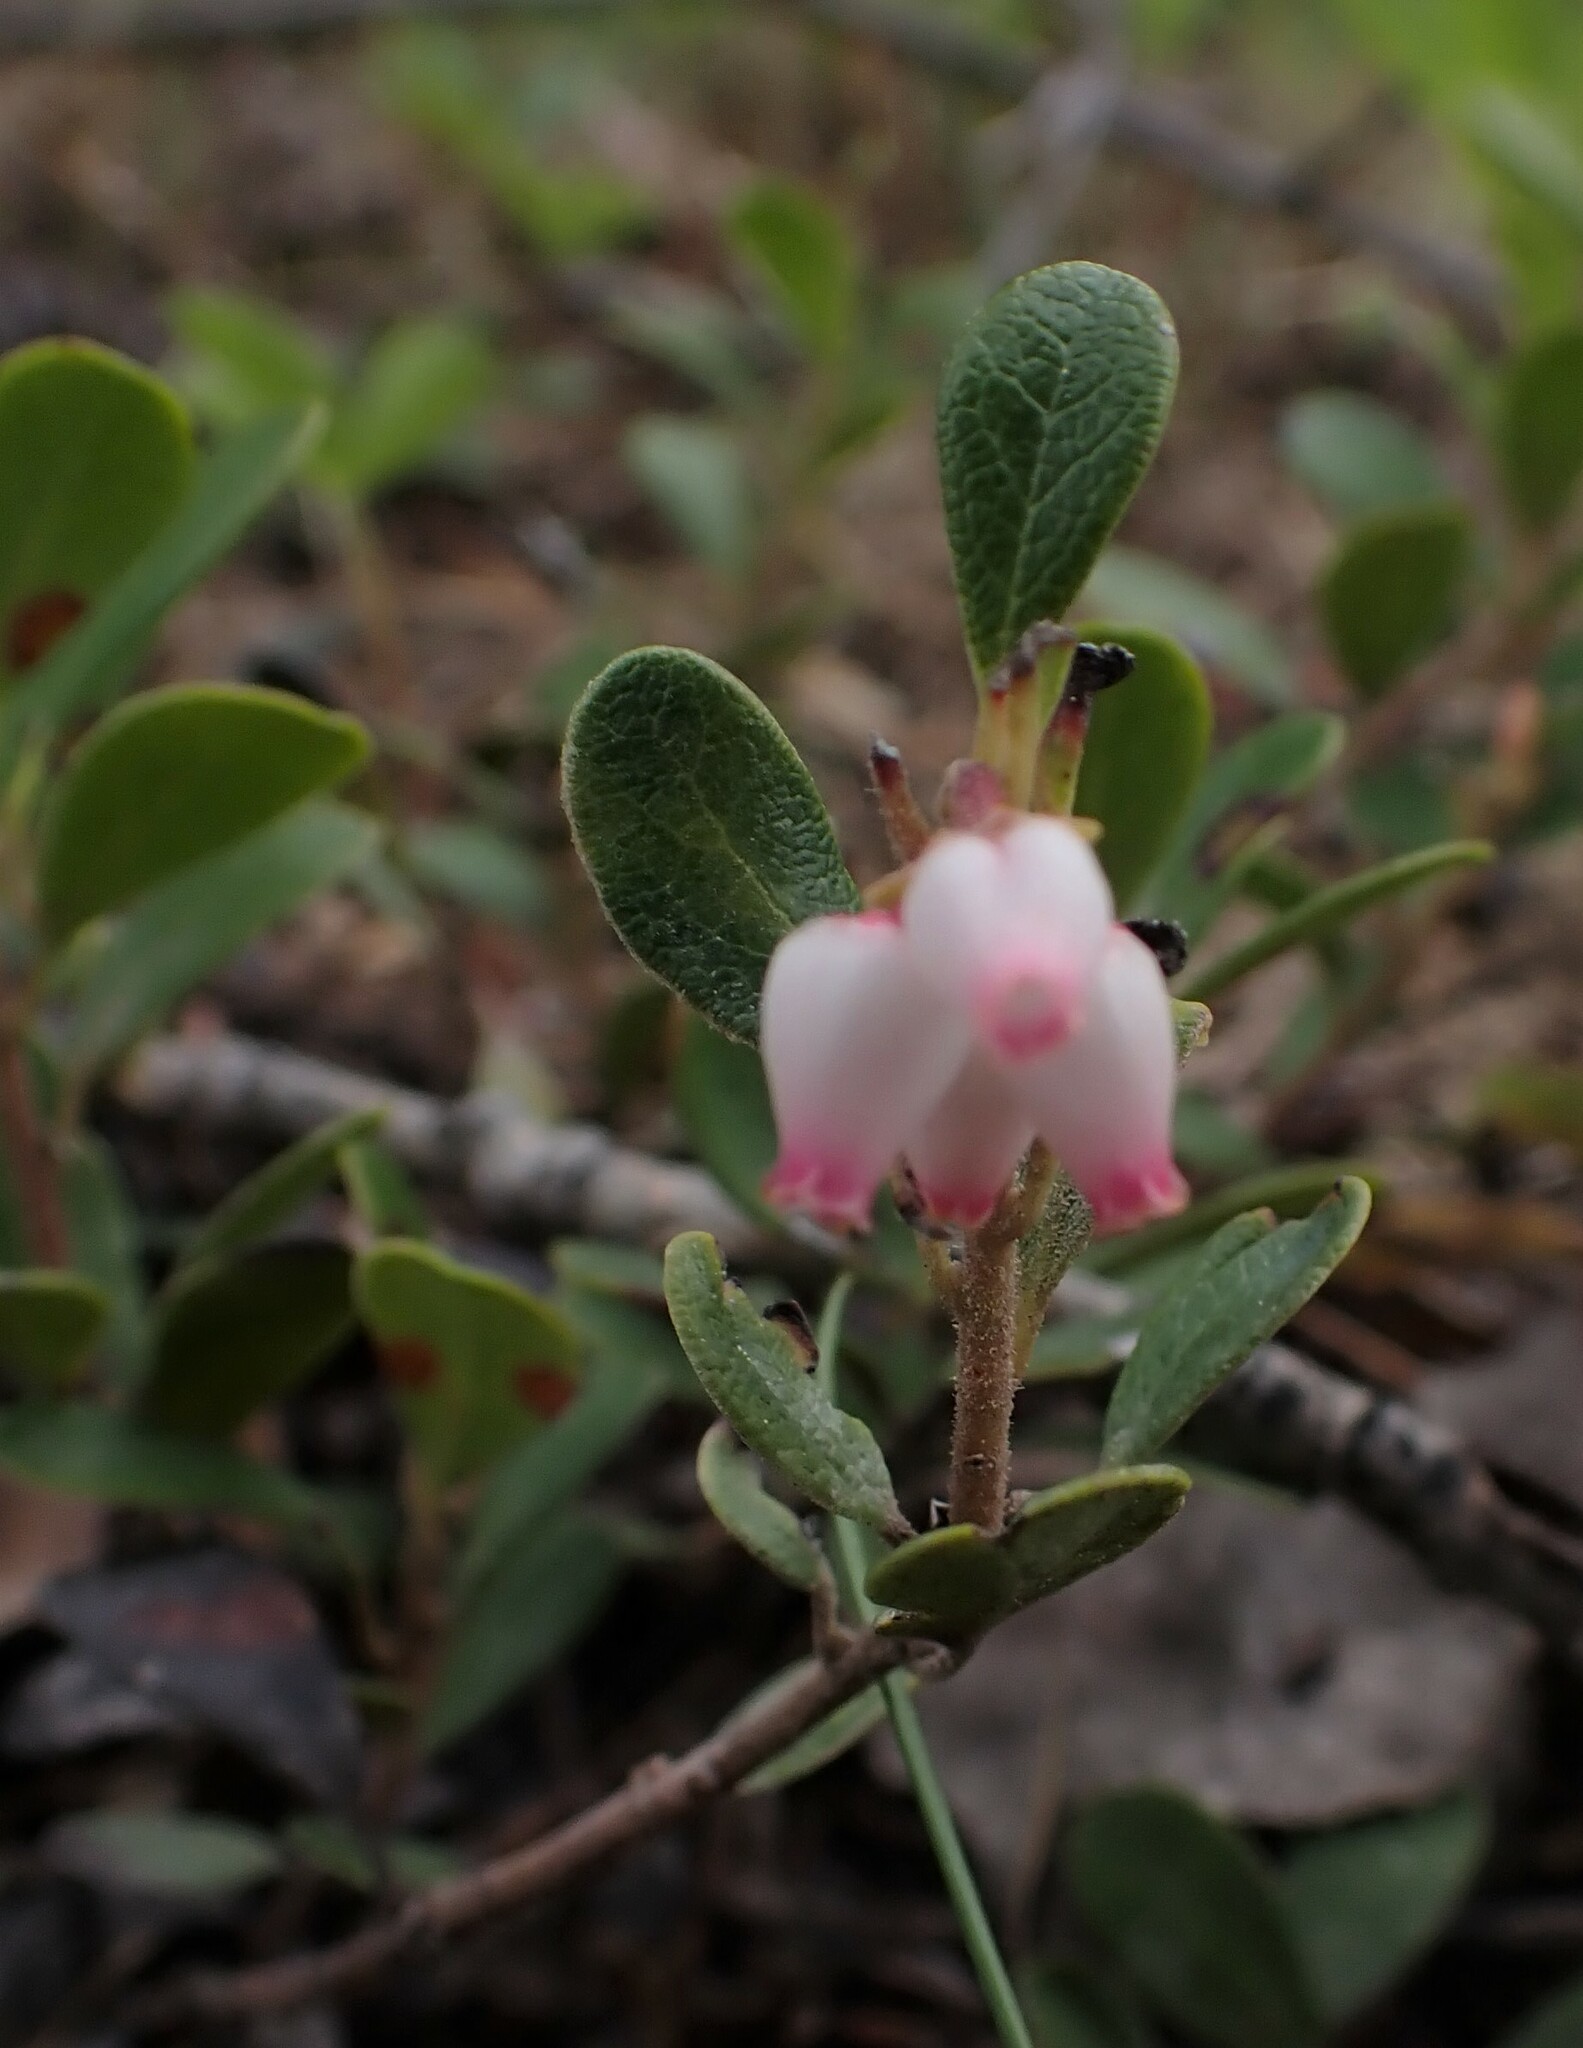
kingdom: Plantae
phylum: Tracheophyta
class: Magnoliopsida
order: Ericales
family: Ericaceae
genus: Arctostaphylos
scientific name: Arctostaphylos uva-ursi
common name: Bearberry
